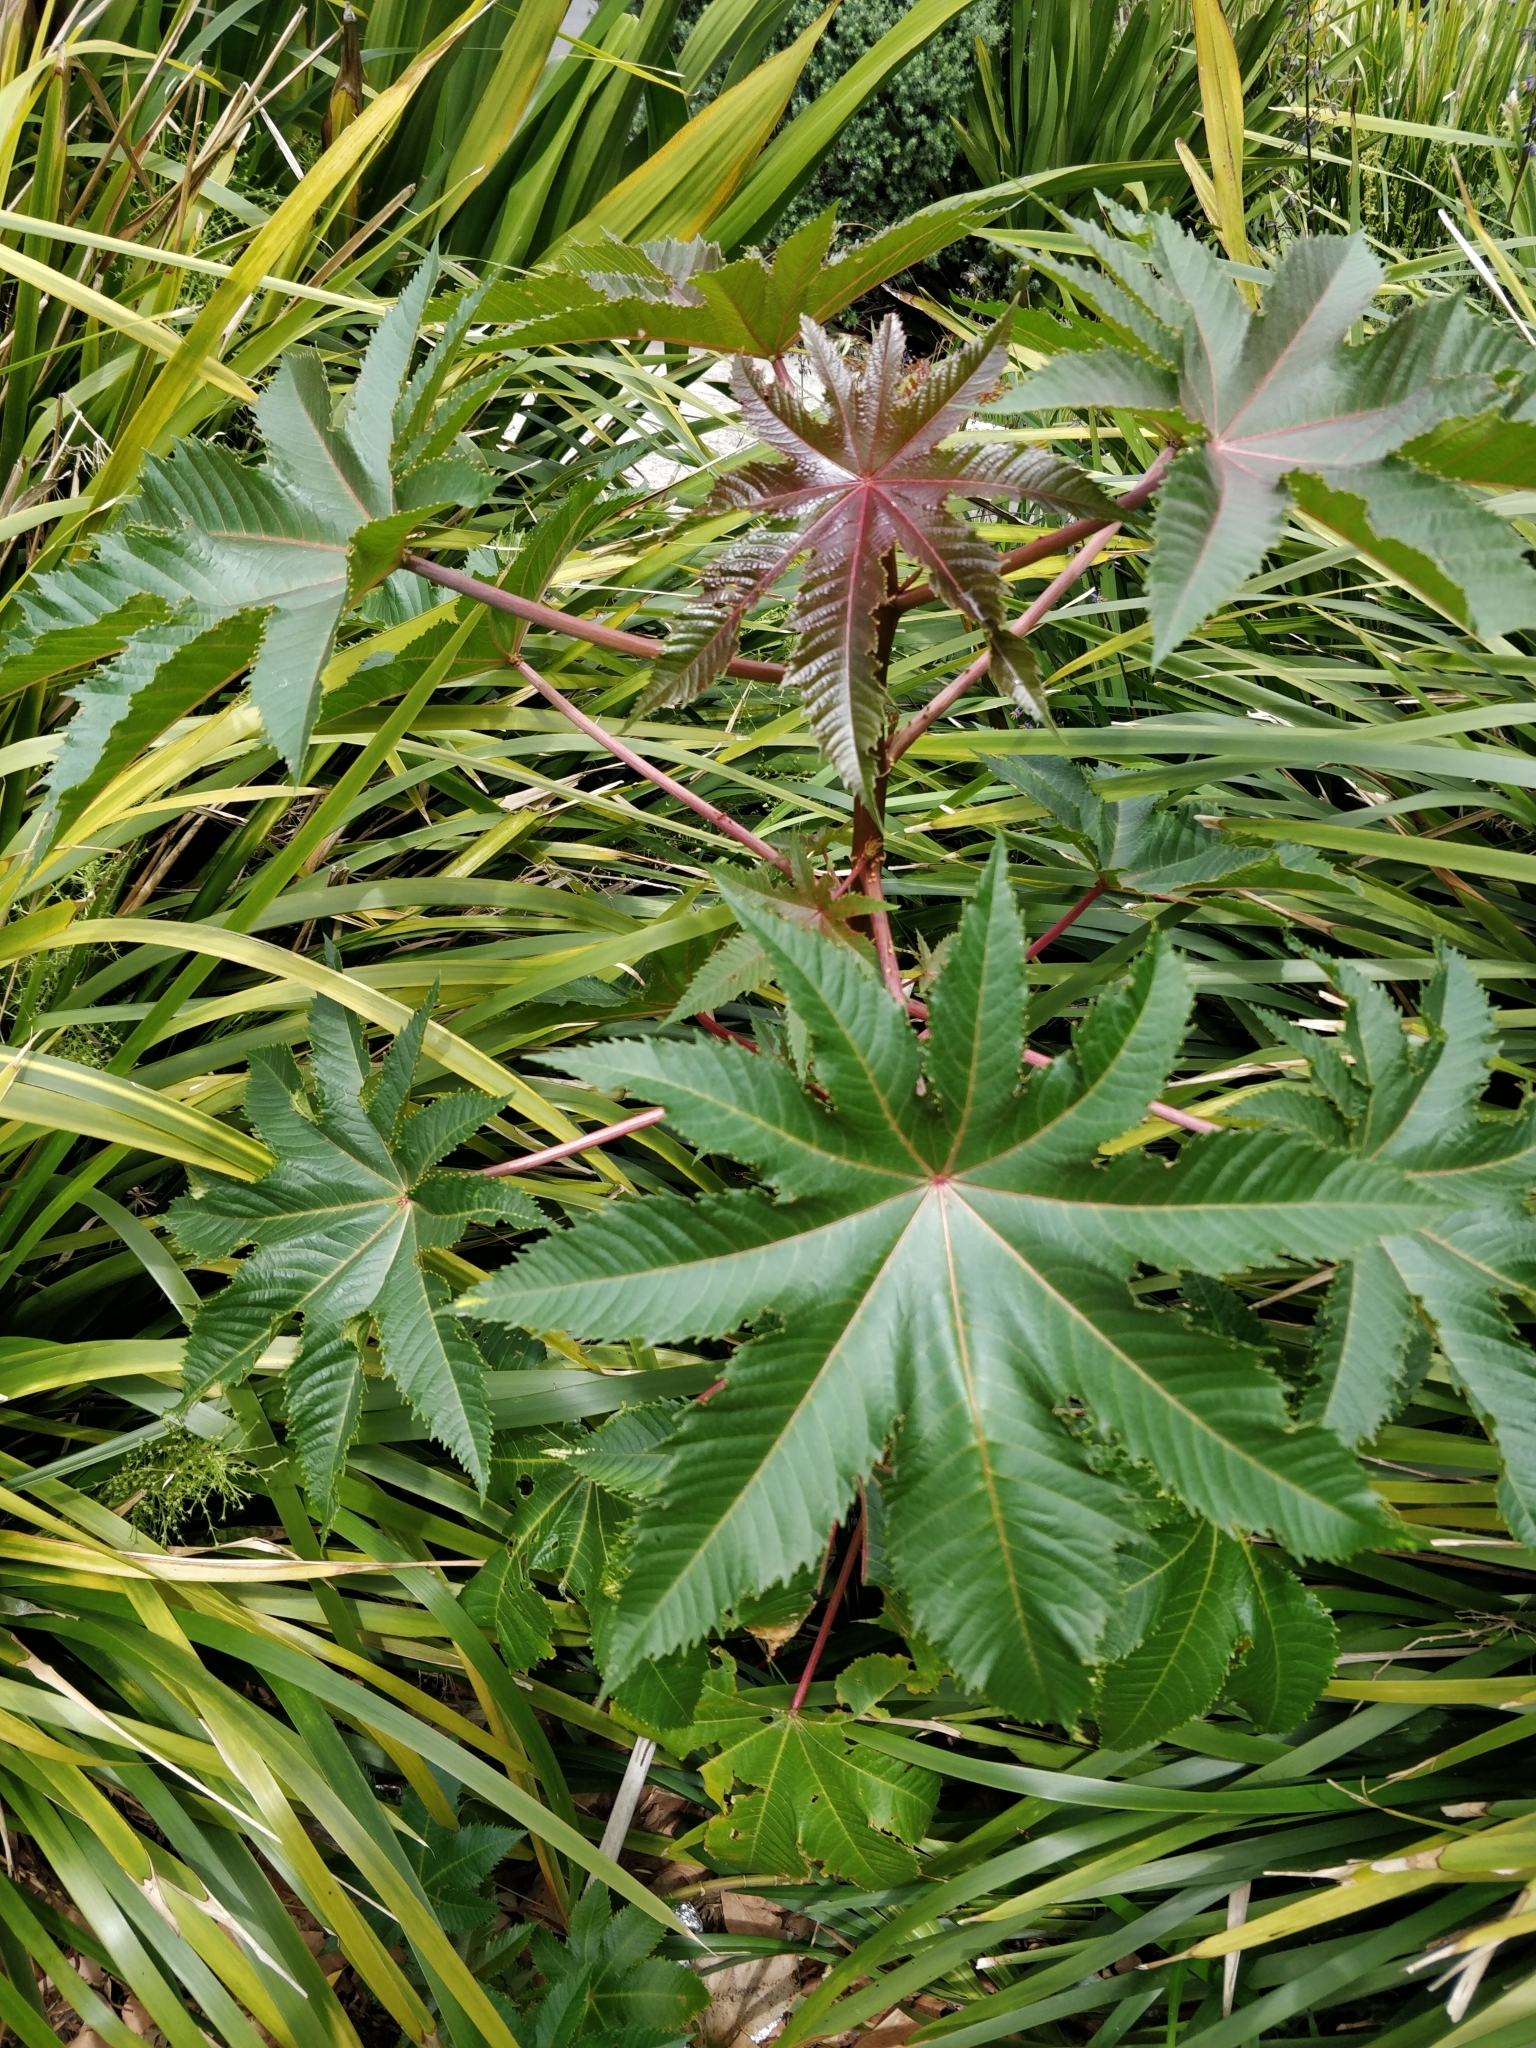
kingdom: Plantae
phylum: Tracheophyta
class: Magnoliopsida
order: Malpighiales
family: Euphorbiaceae
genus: Ricinus
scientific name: Ricinus communis
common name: Castor-oil-plant
